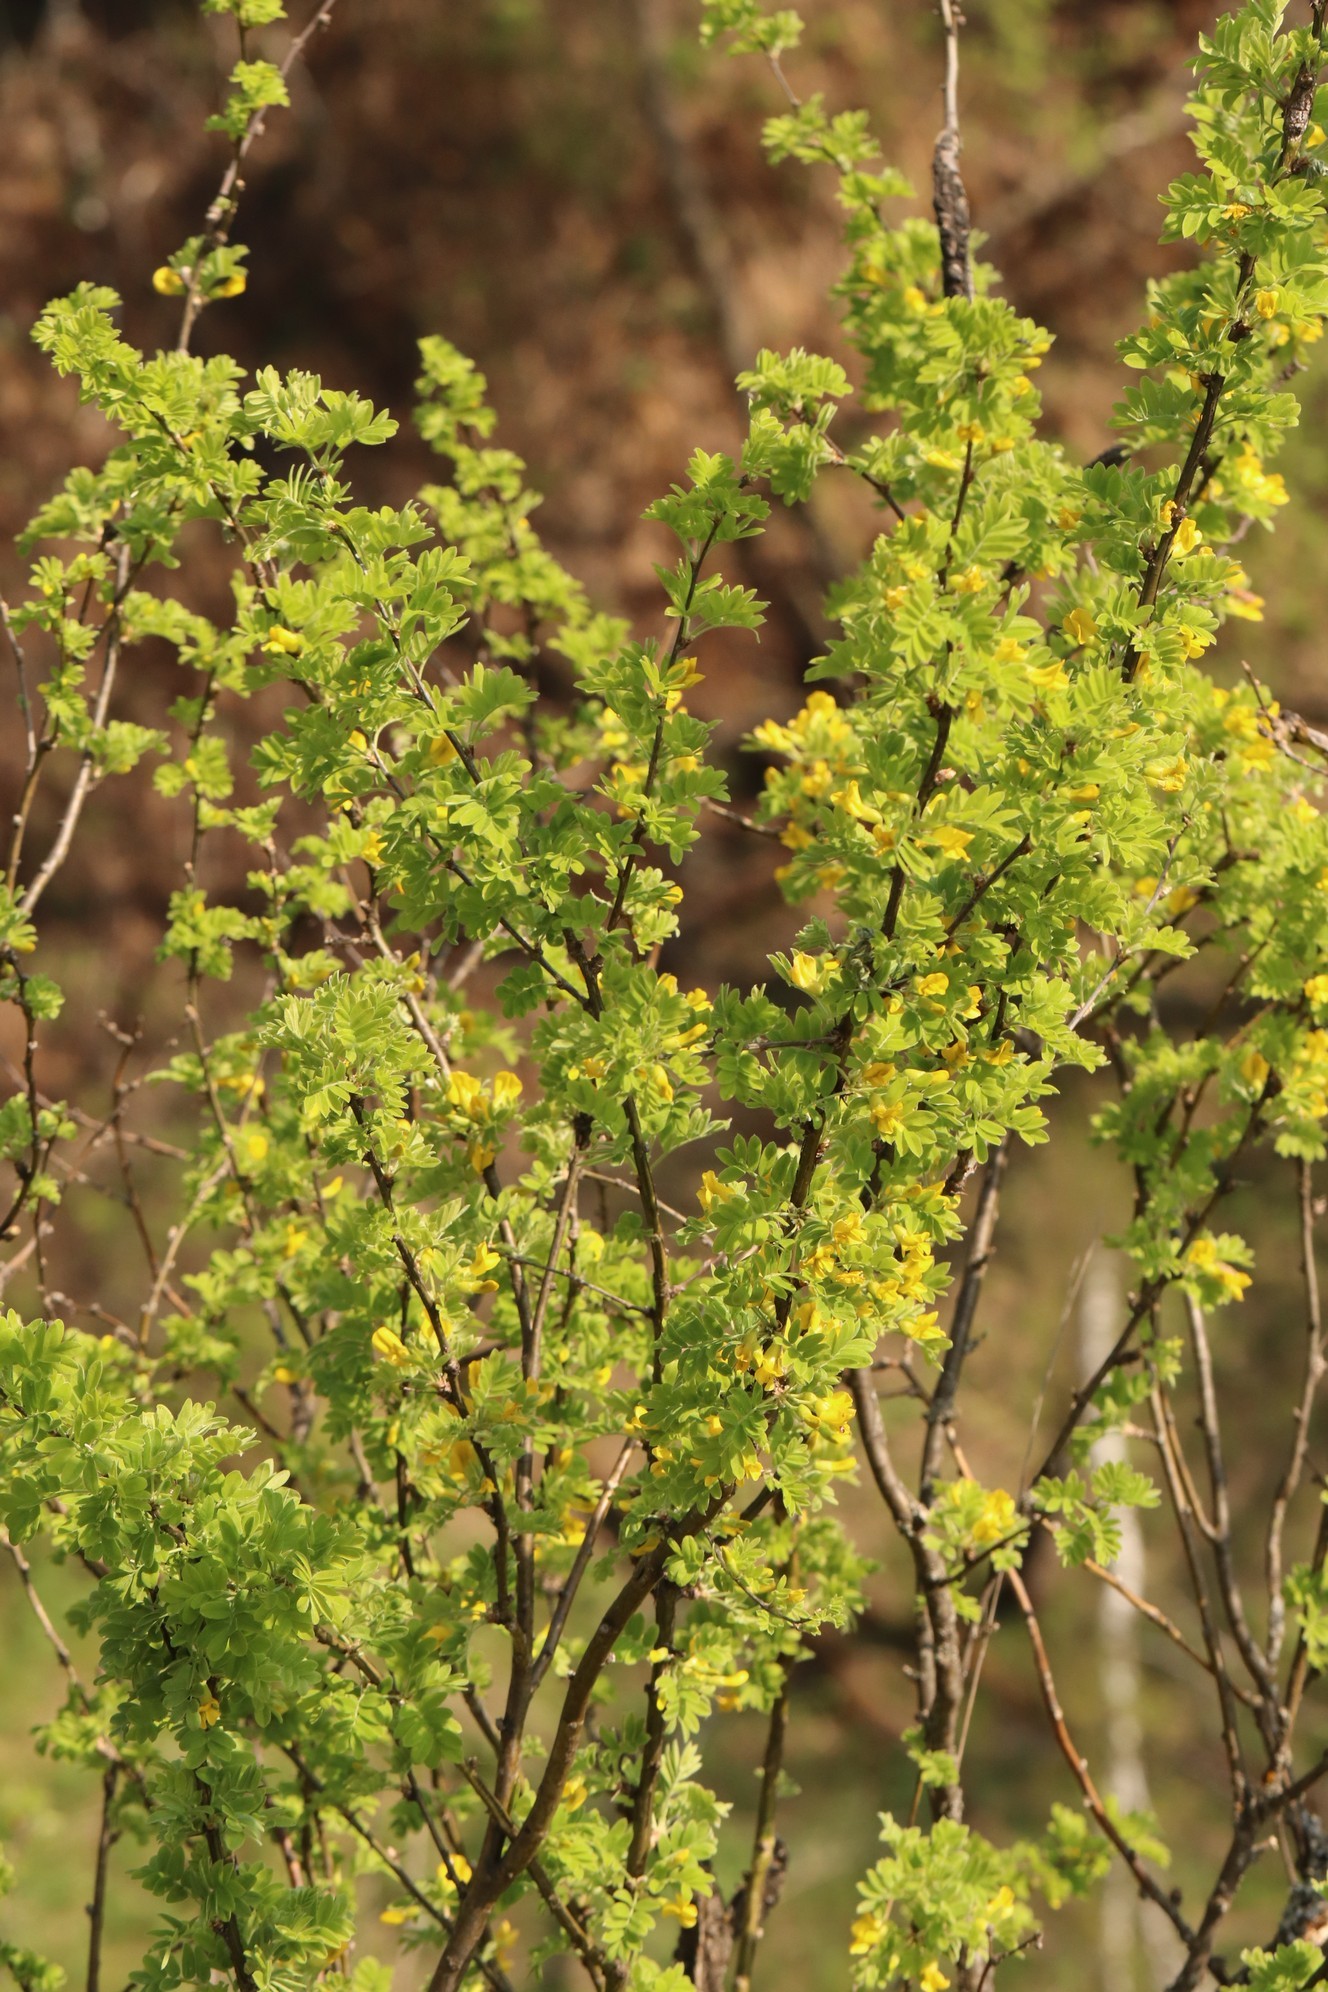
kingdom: Plantae
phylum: Tracheophyta
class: Magnoliopsida
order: Fabales
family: Fabaceae
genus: Caragana
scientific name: Caragana arborescens
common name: Siberian peashrub
